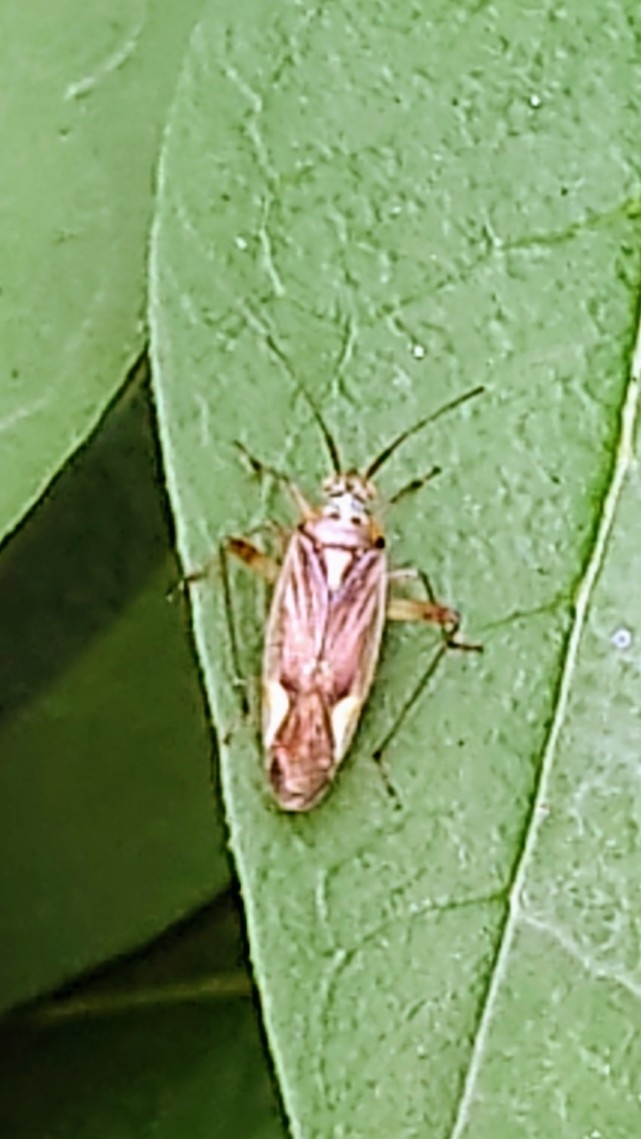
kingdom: Animalia
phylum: Arthropoda
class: Insecta
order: Hemiptera
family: Miridae
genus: Closterotomus
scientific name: Closterotomus trivialis
